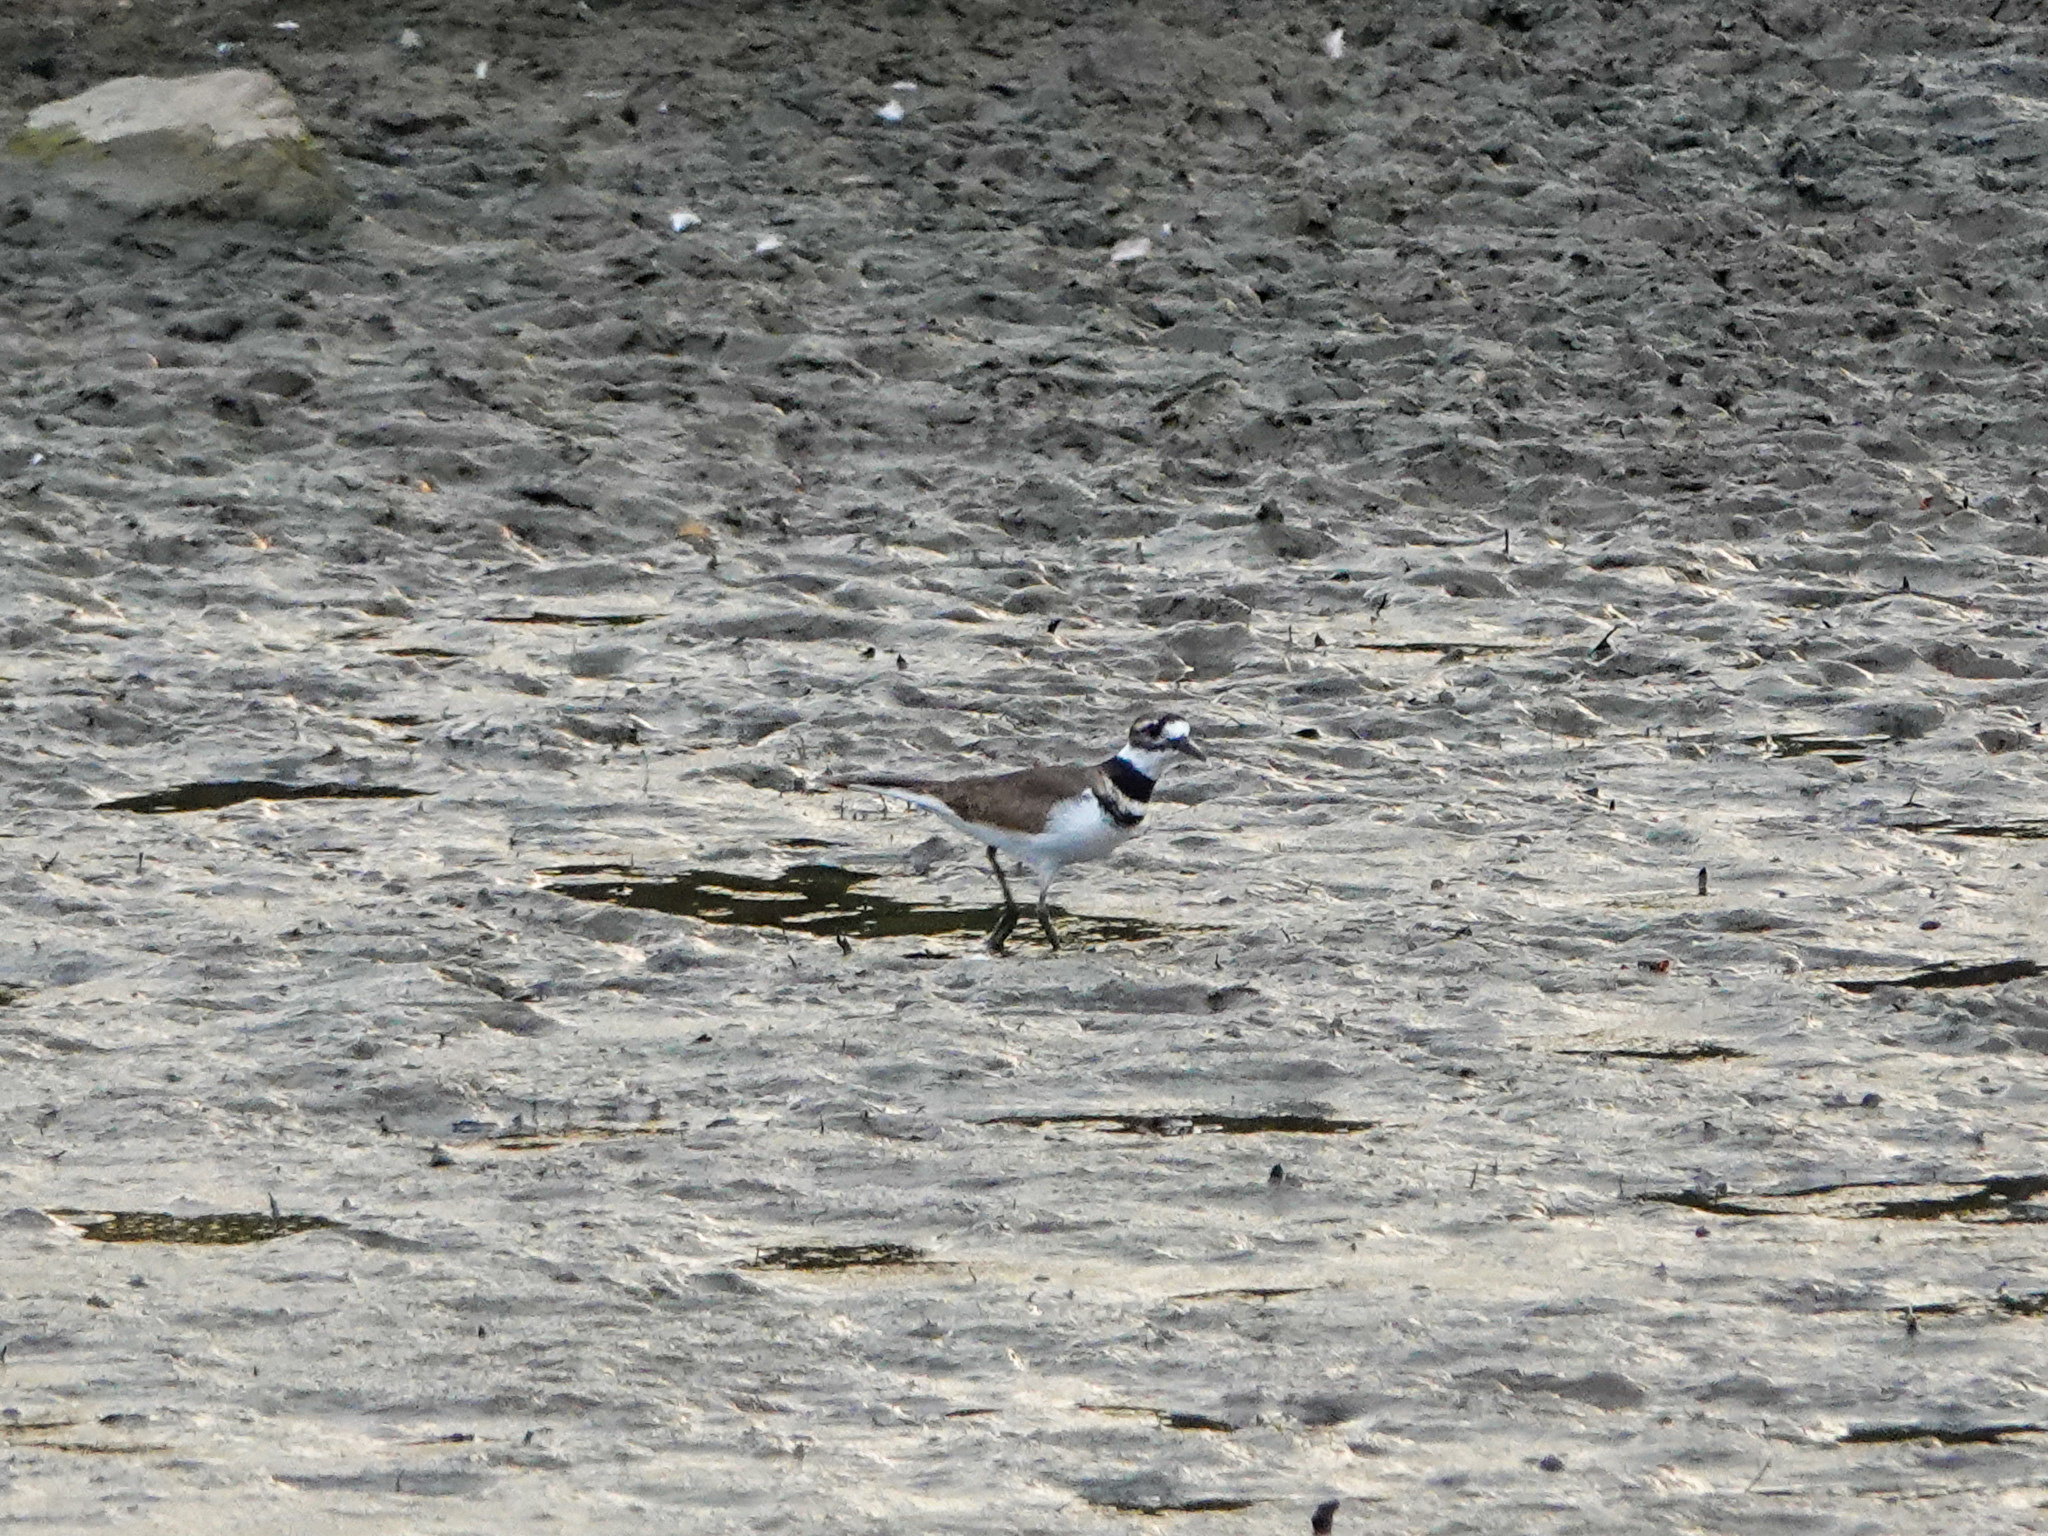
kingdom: Animalia
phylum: Chordata
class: Aves
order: Charadriiformes
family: Charadriidae
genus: Charadrius
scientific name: Charadrius vociferus
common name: Killdeer
